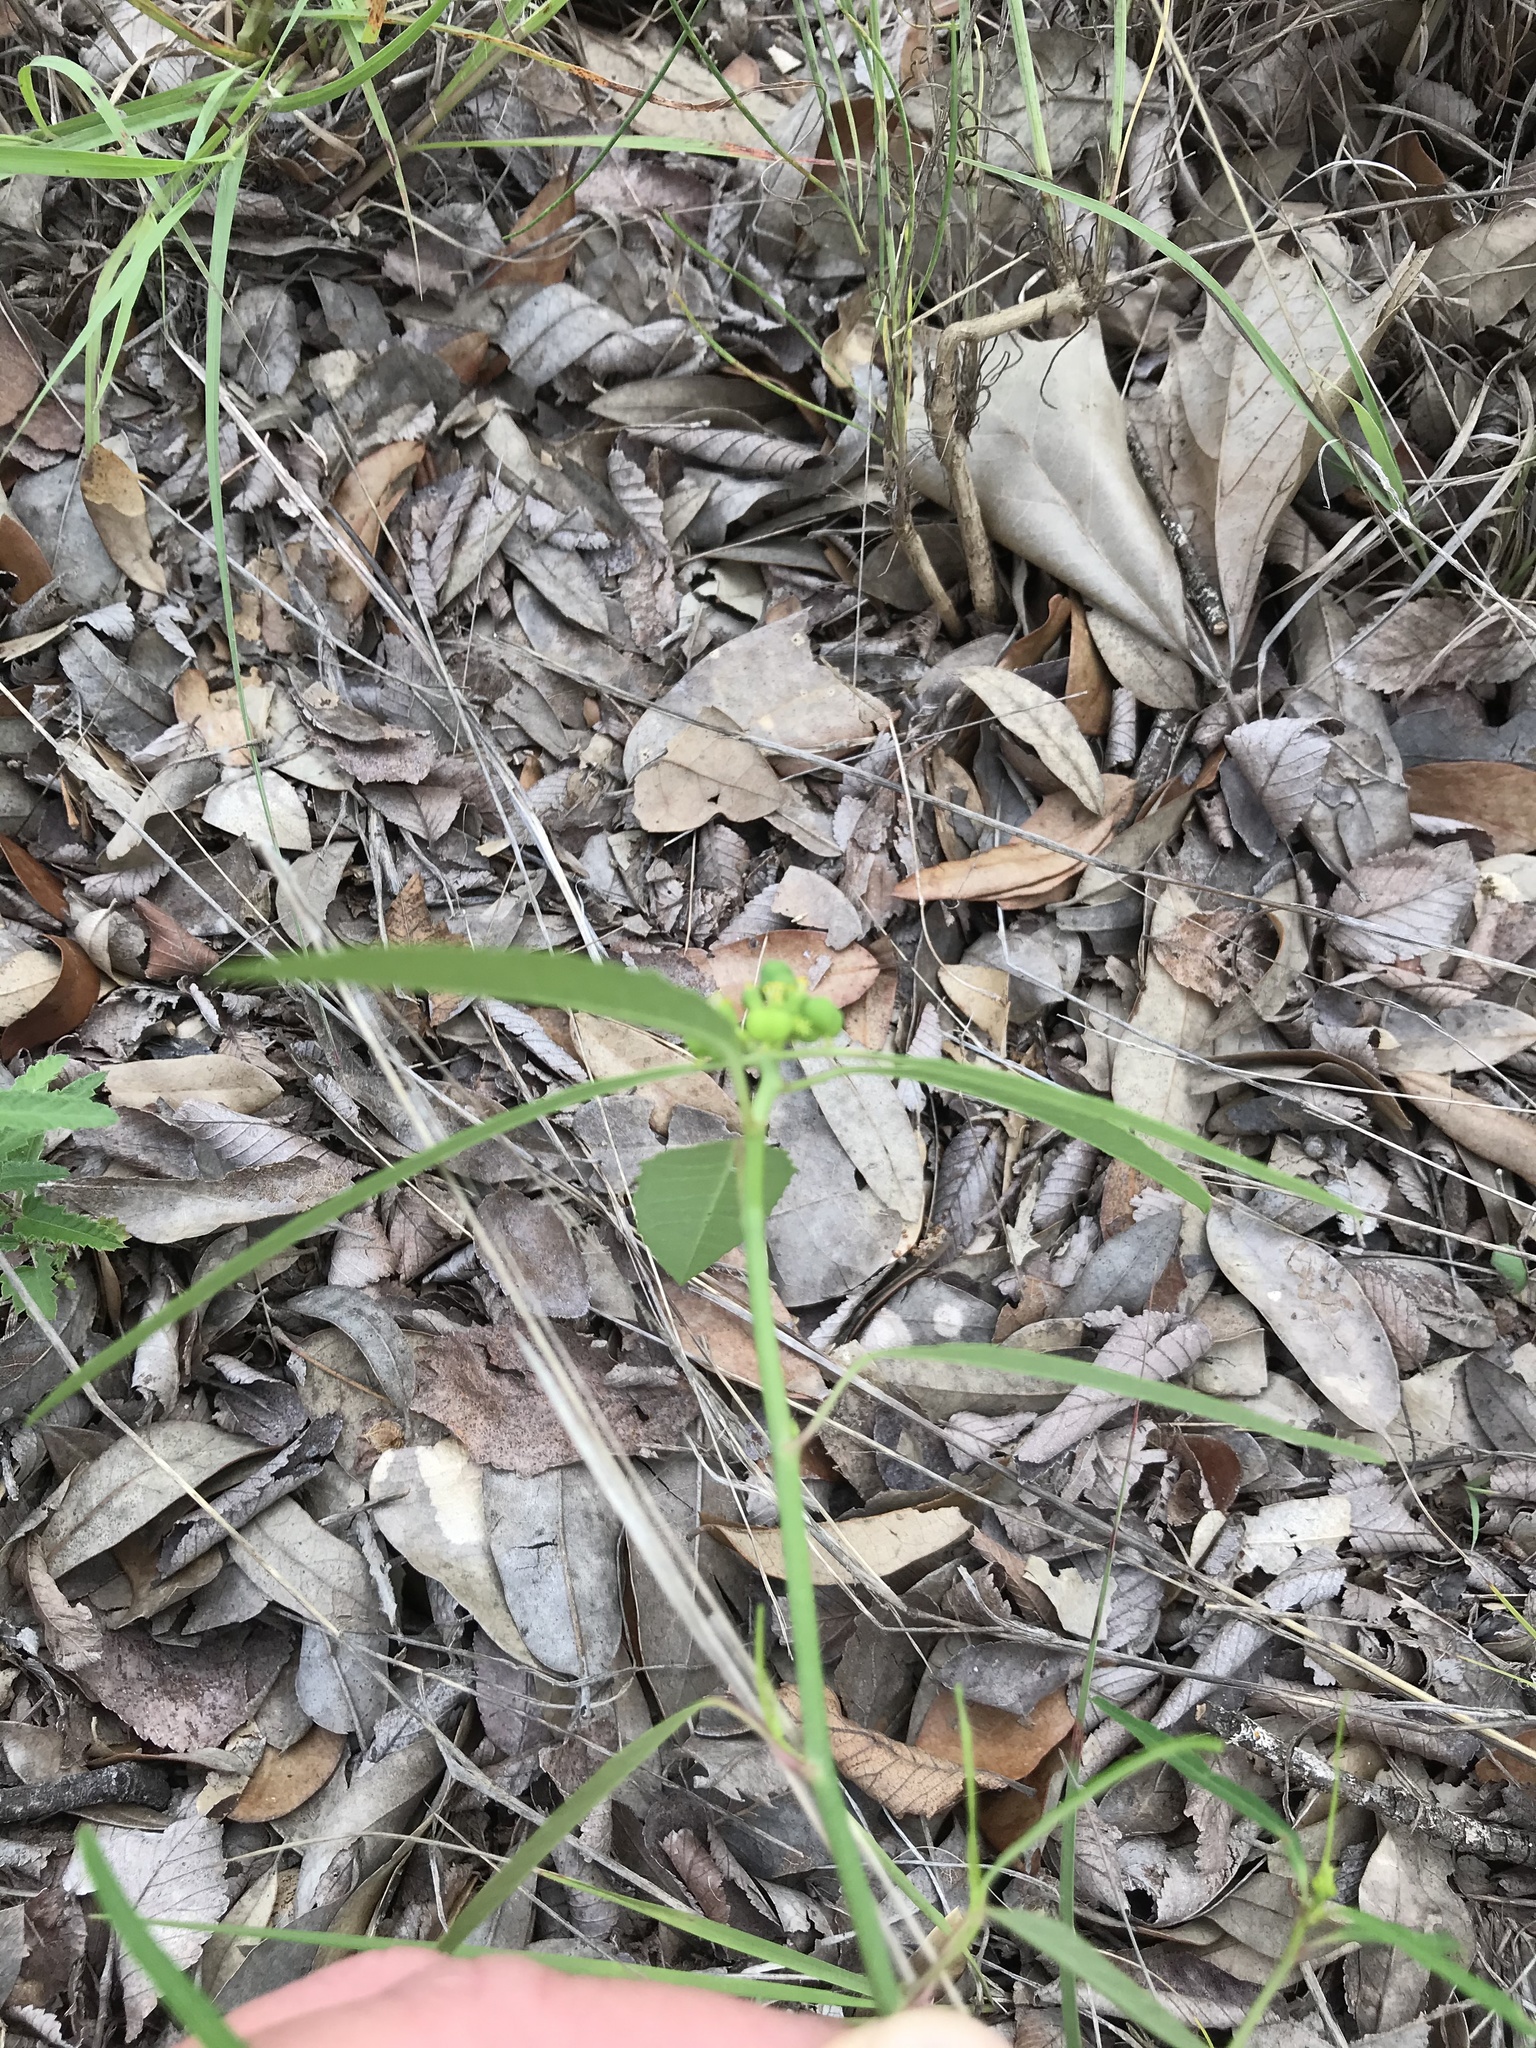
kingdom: Plantae
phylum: Tracheophyta
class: Magnoliopsida
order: Malpighiales
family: Euphorbiaceae
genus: Euphorbia
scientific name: Euphorbia heterophylla
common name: Mexican fireplant
